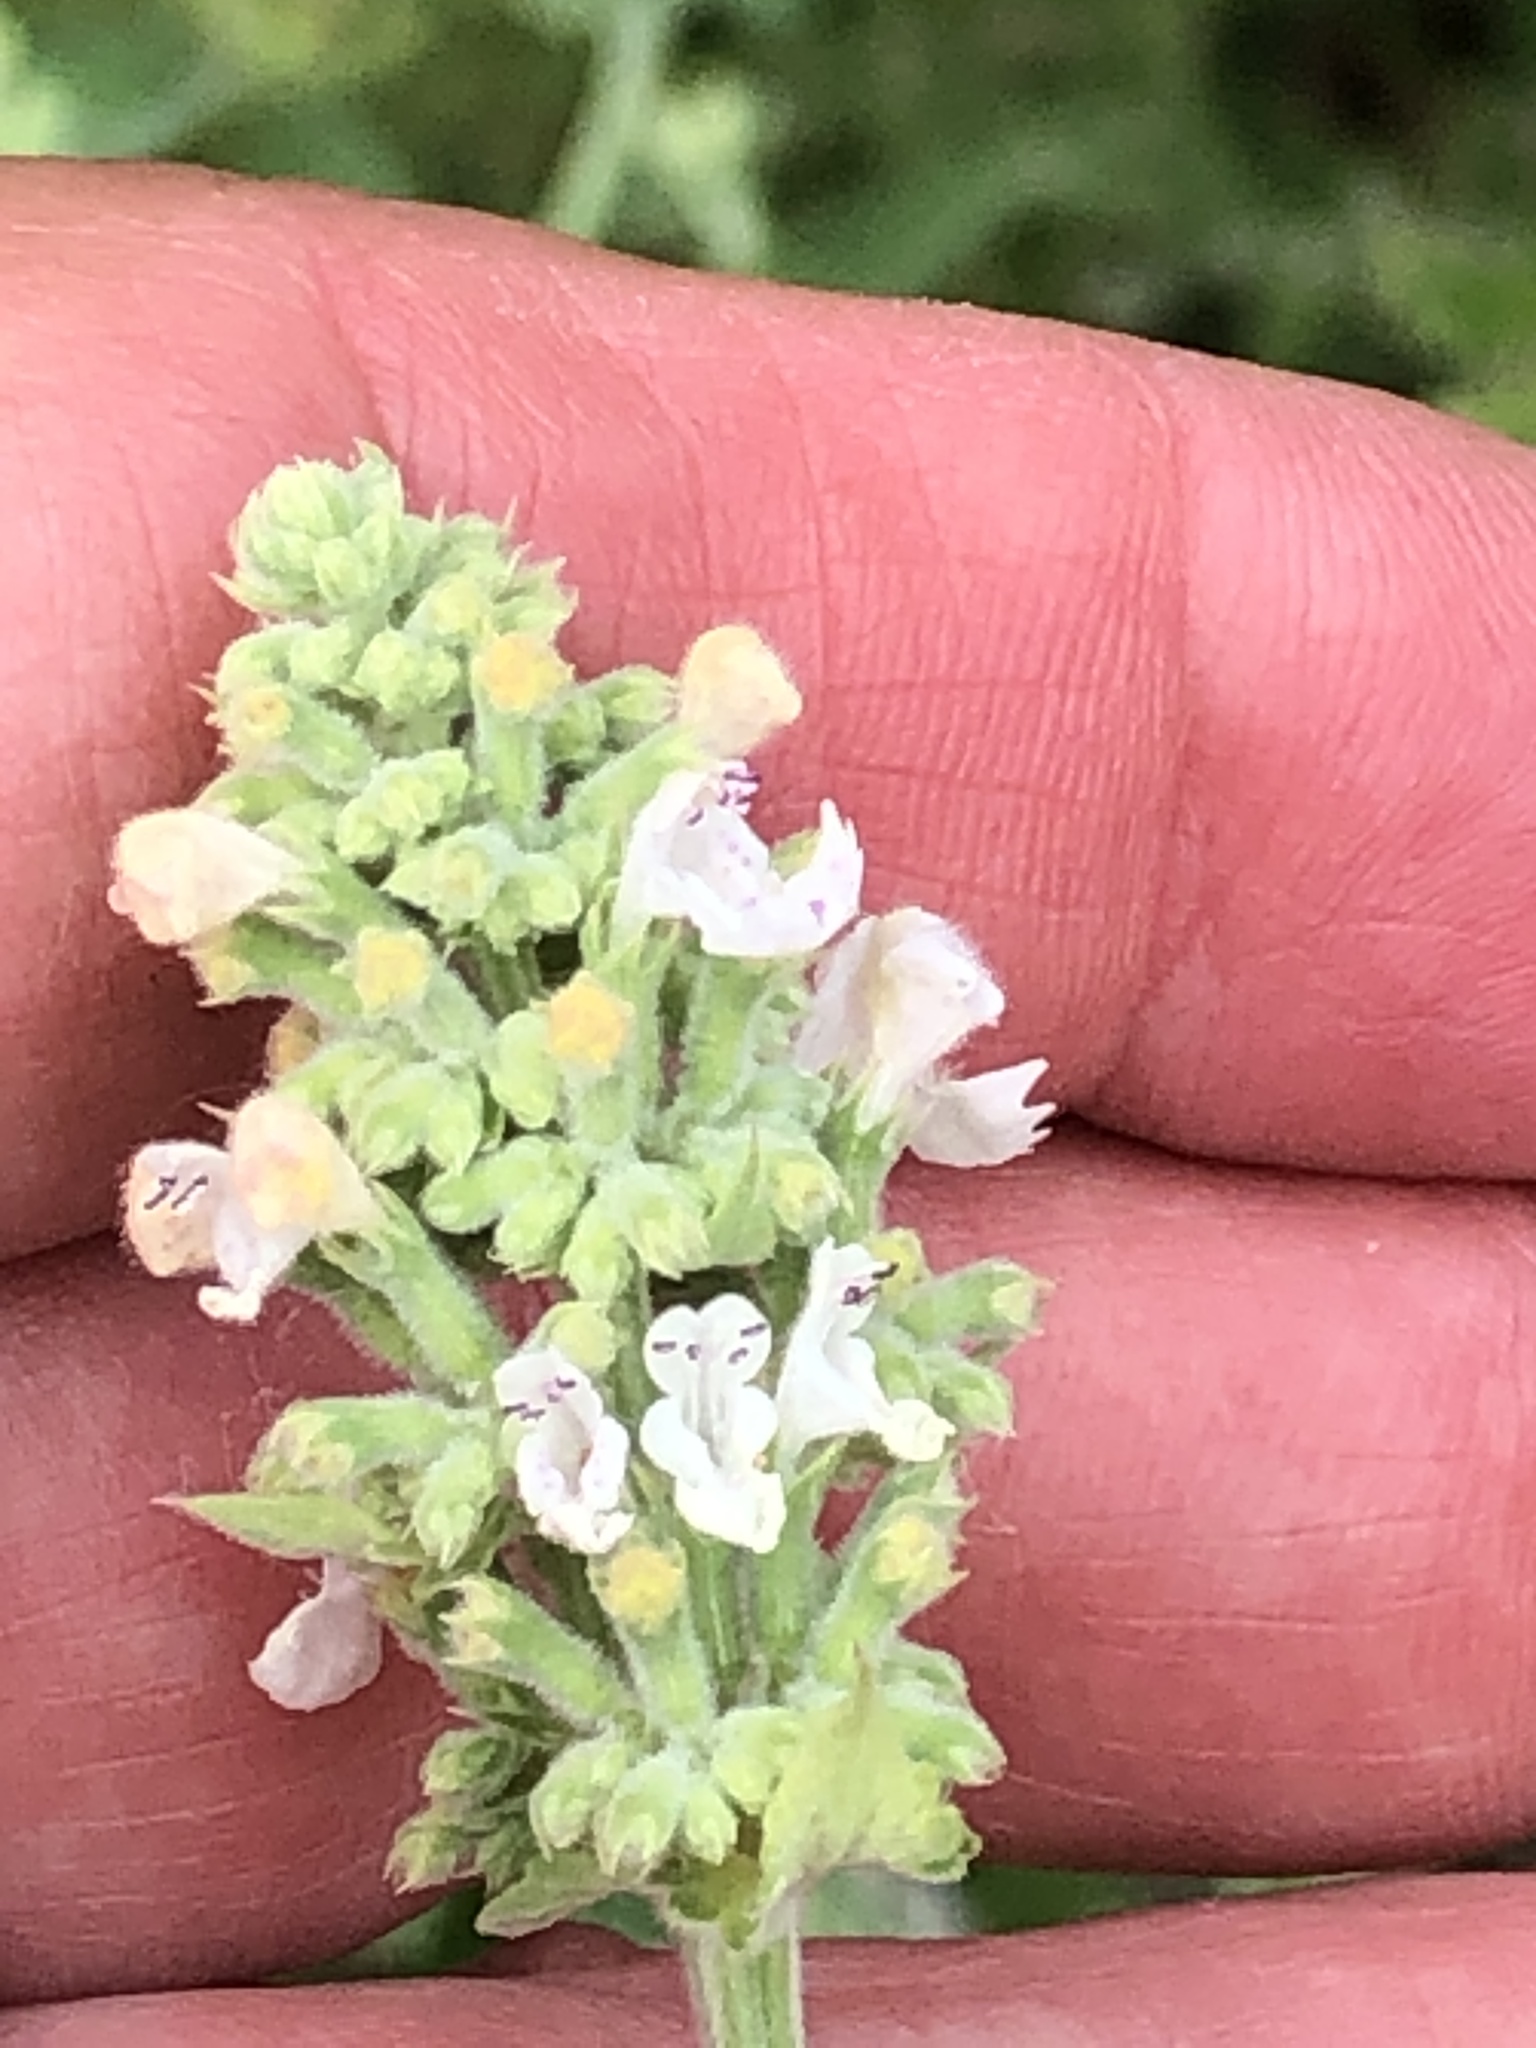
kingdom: Plantae
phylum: Tracheophyta
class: Magnoliopsida
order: Lamiales
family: Lamiaceae
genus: Nepeta
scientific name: Nepeta cataria
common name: Catnip
